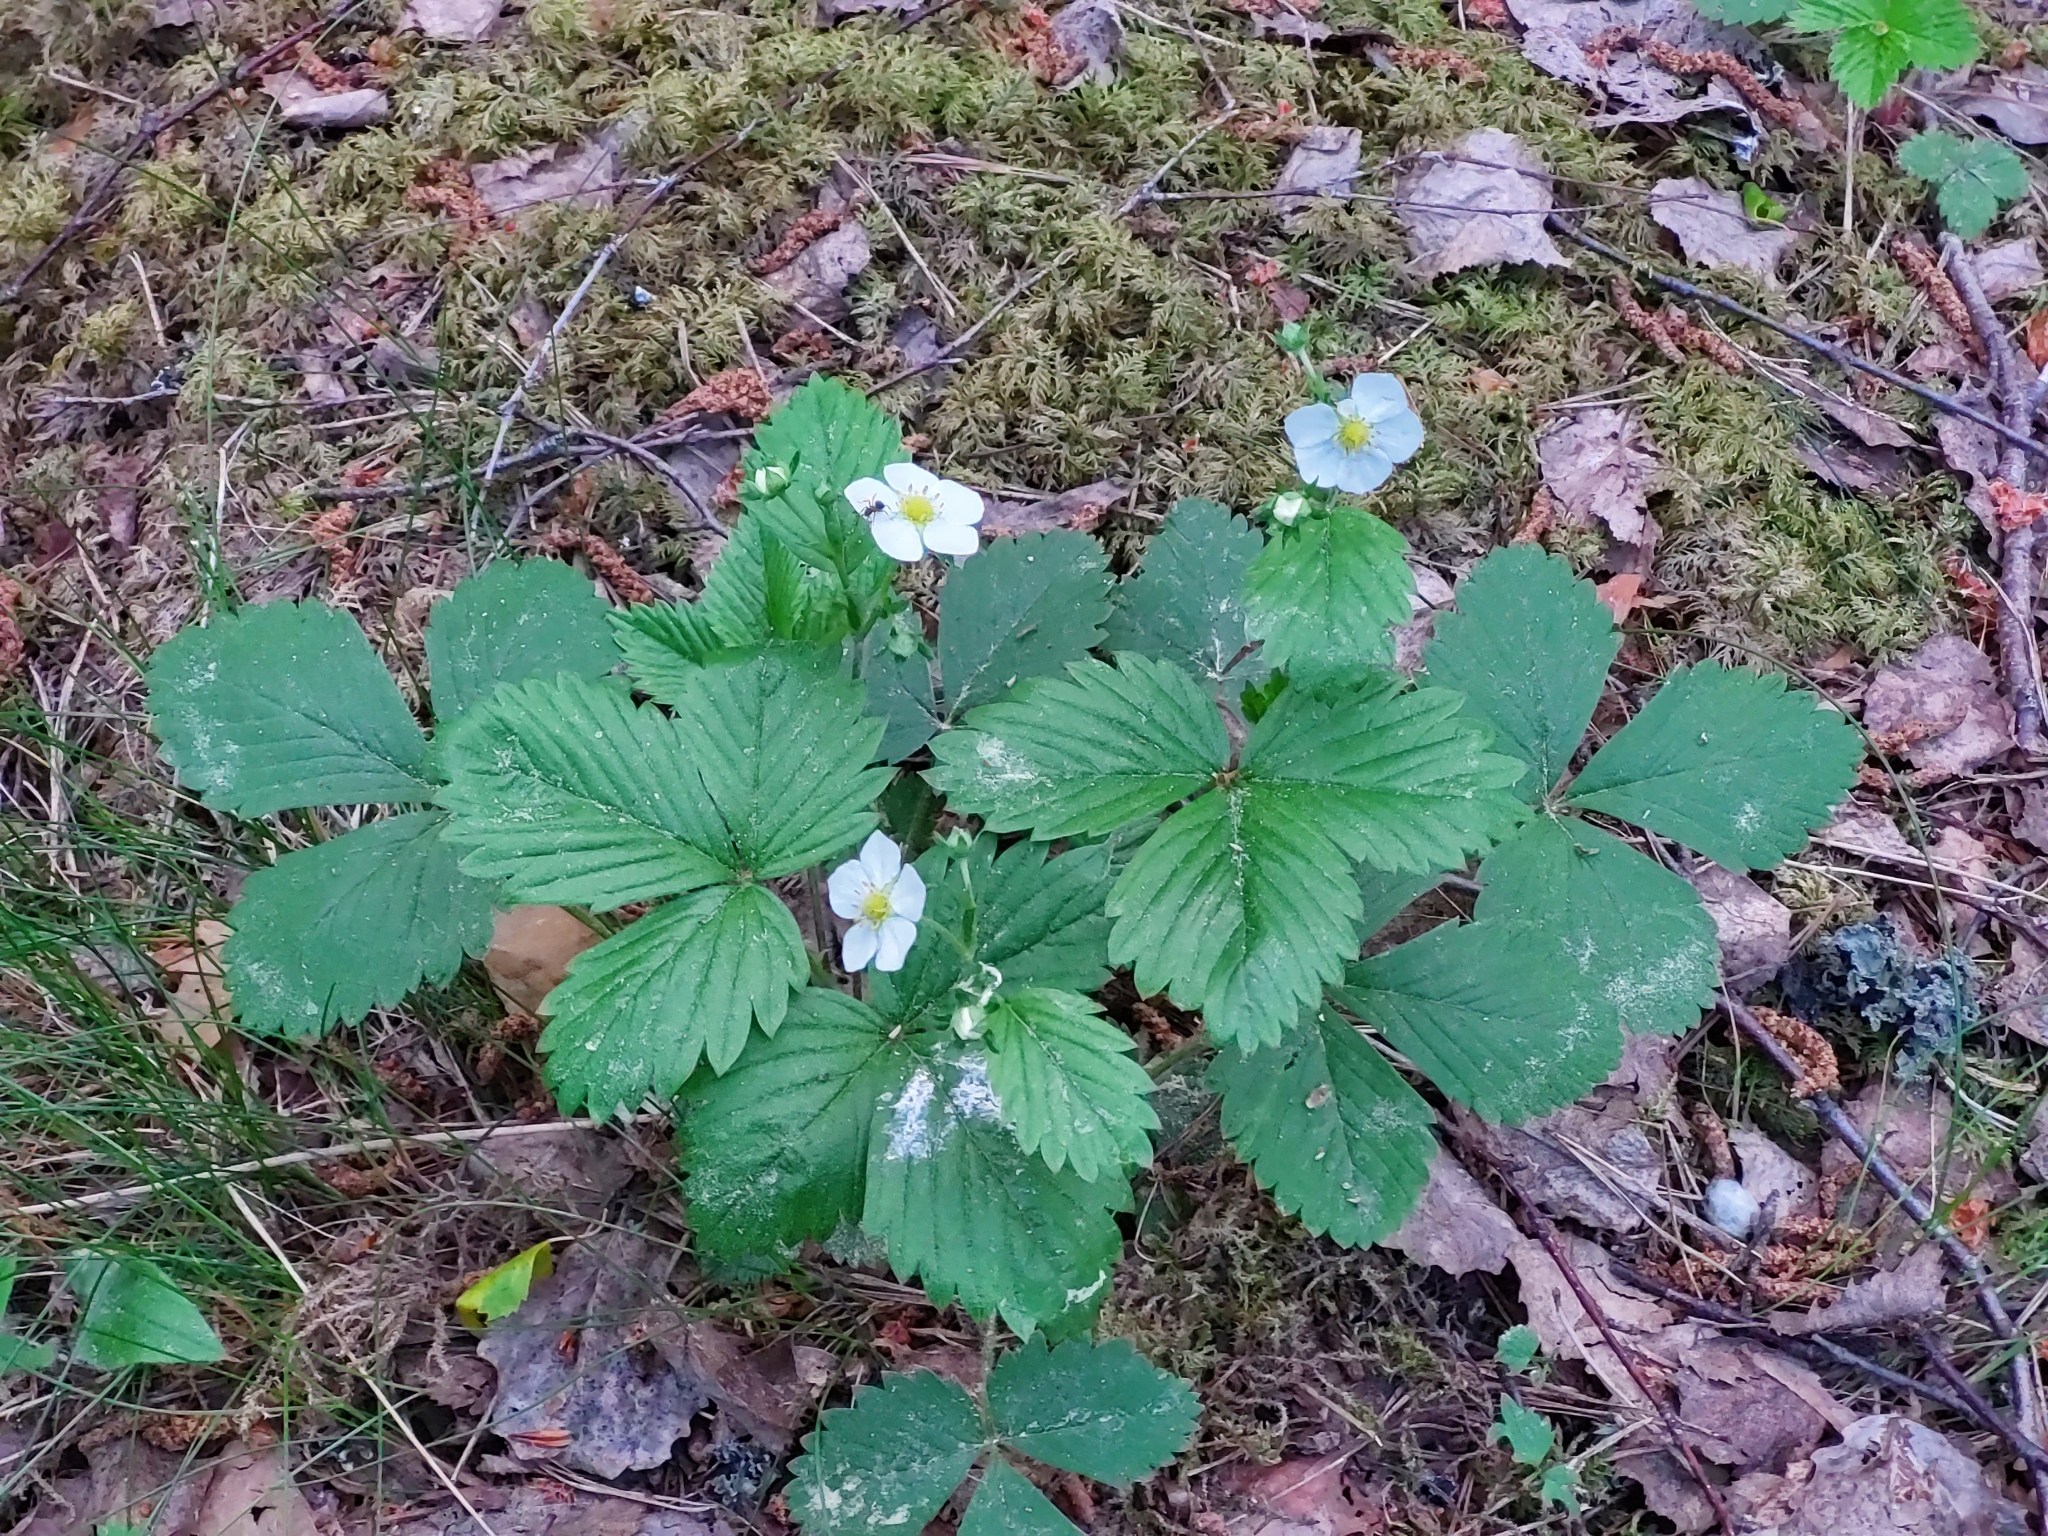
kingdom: Plantae
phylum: Tracheophyta
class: Magnoliopsida
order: Rosales
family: Rosaceae
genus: Fragaria
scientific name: Fragaria vesca
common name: Wild strawberry
